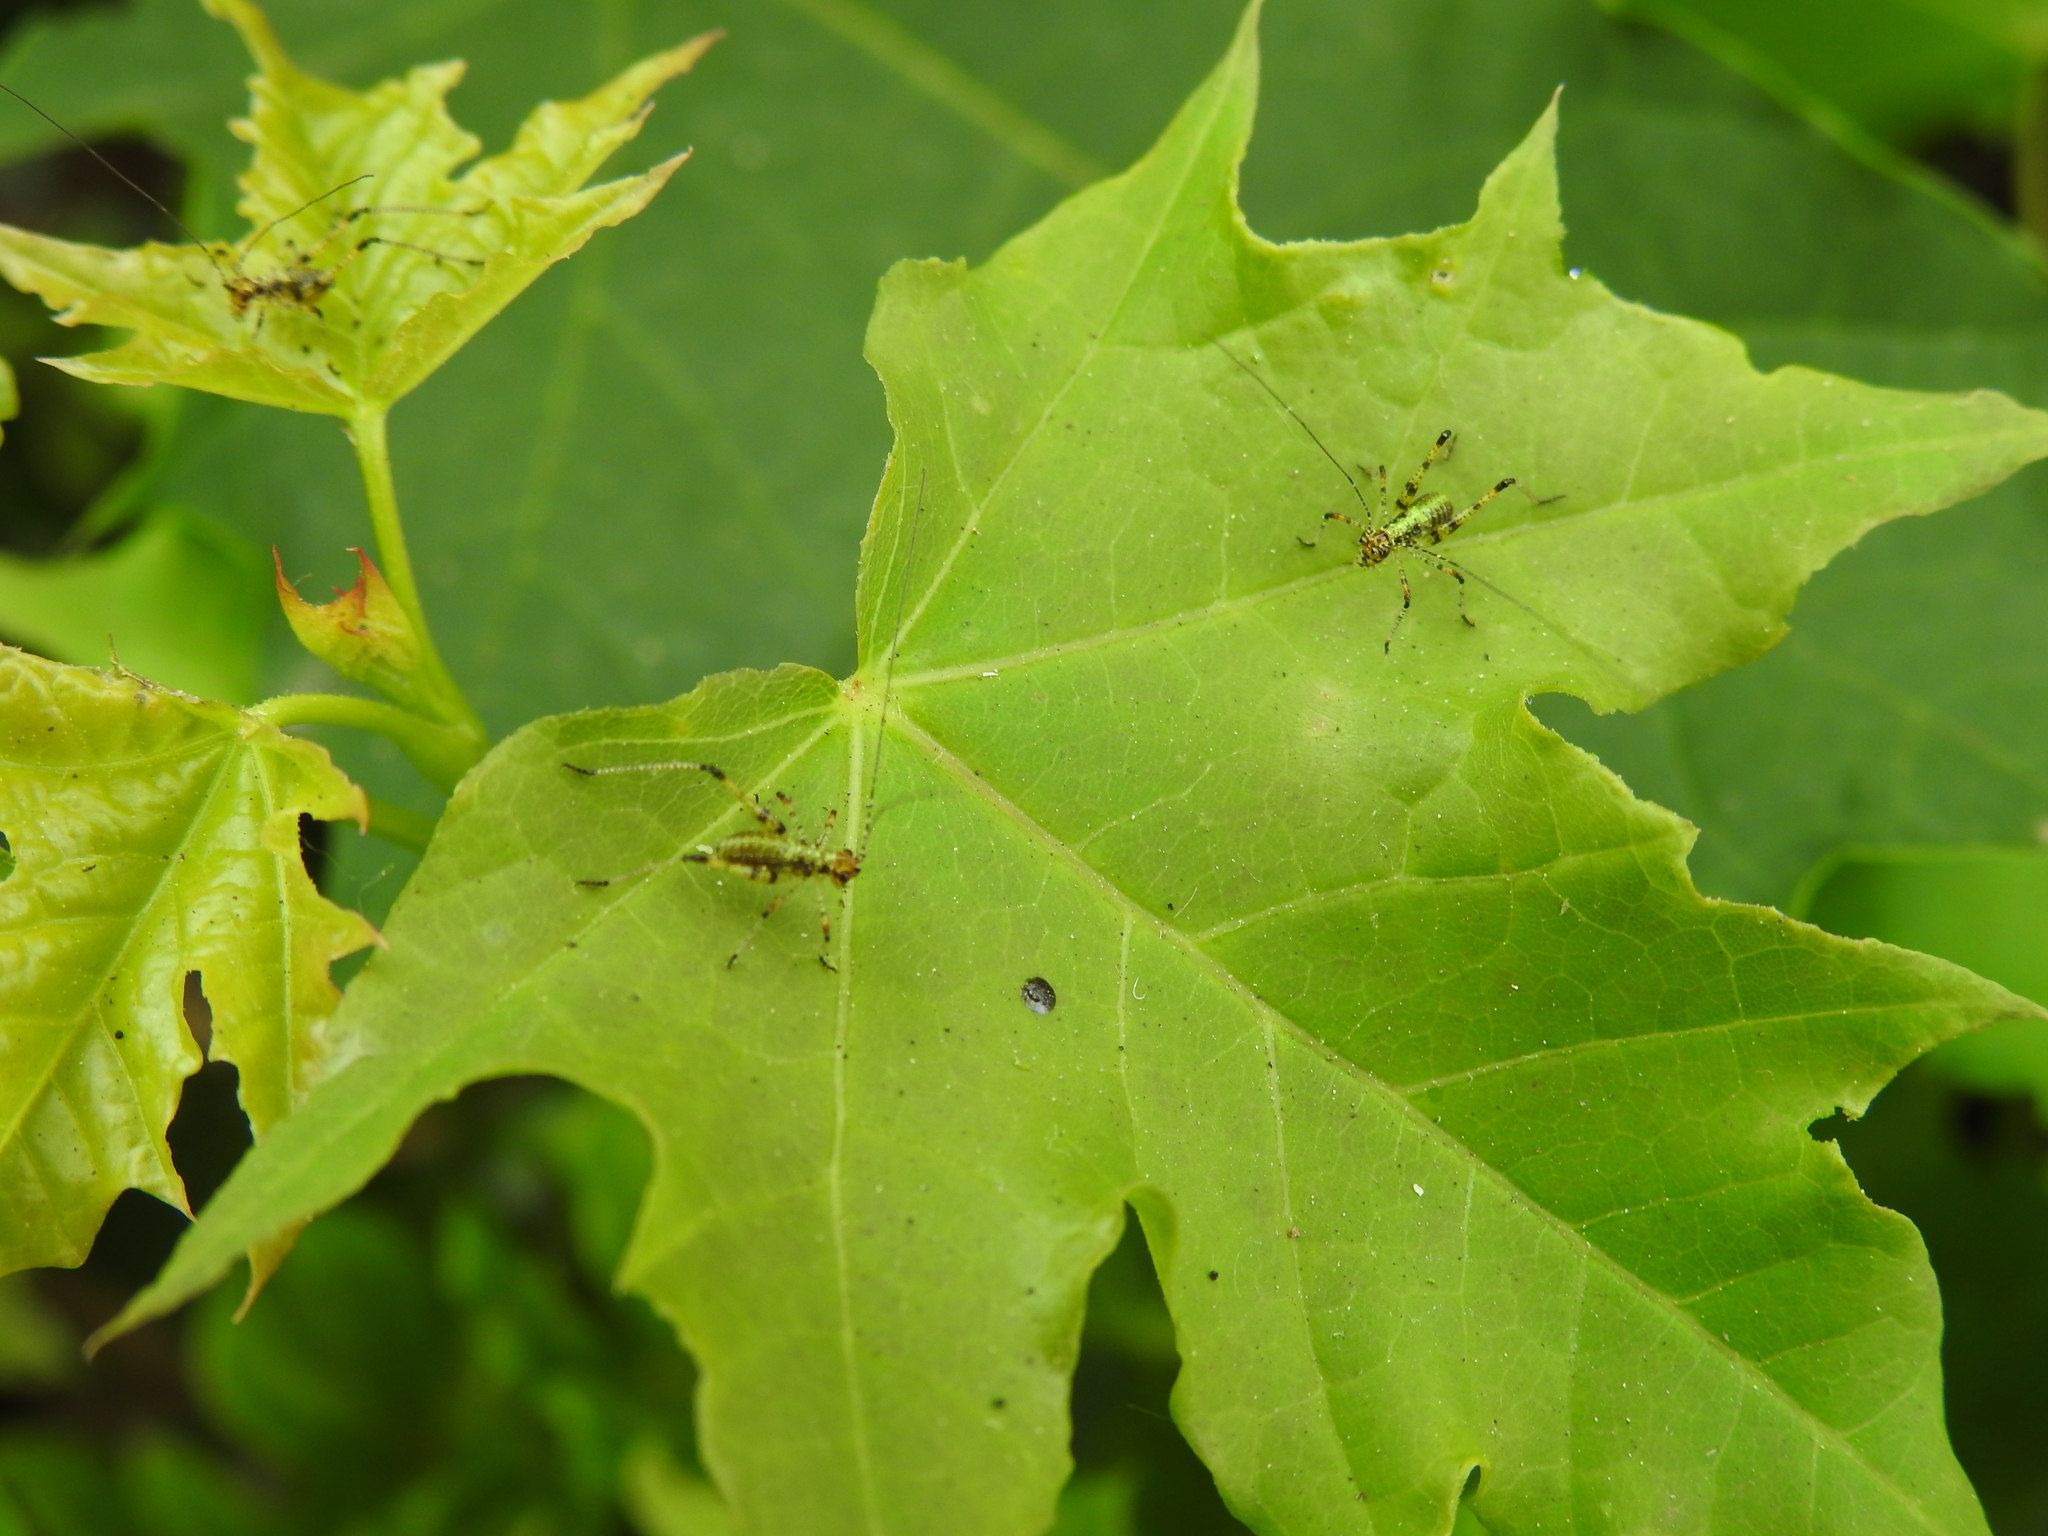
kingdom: Animalia
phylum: Arthropoda
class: Insecta
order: Orthoptera
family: Tettigoniidae
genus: Phaneroptera
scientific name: Phaneroptera nana
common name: Southern sickle bush-cricket
